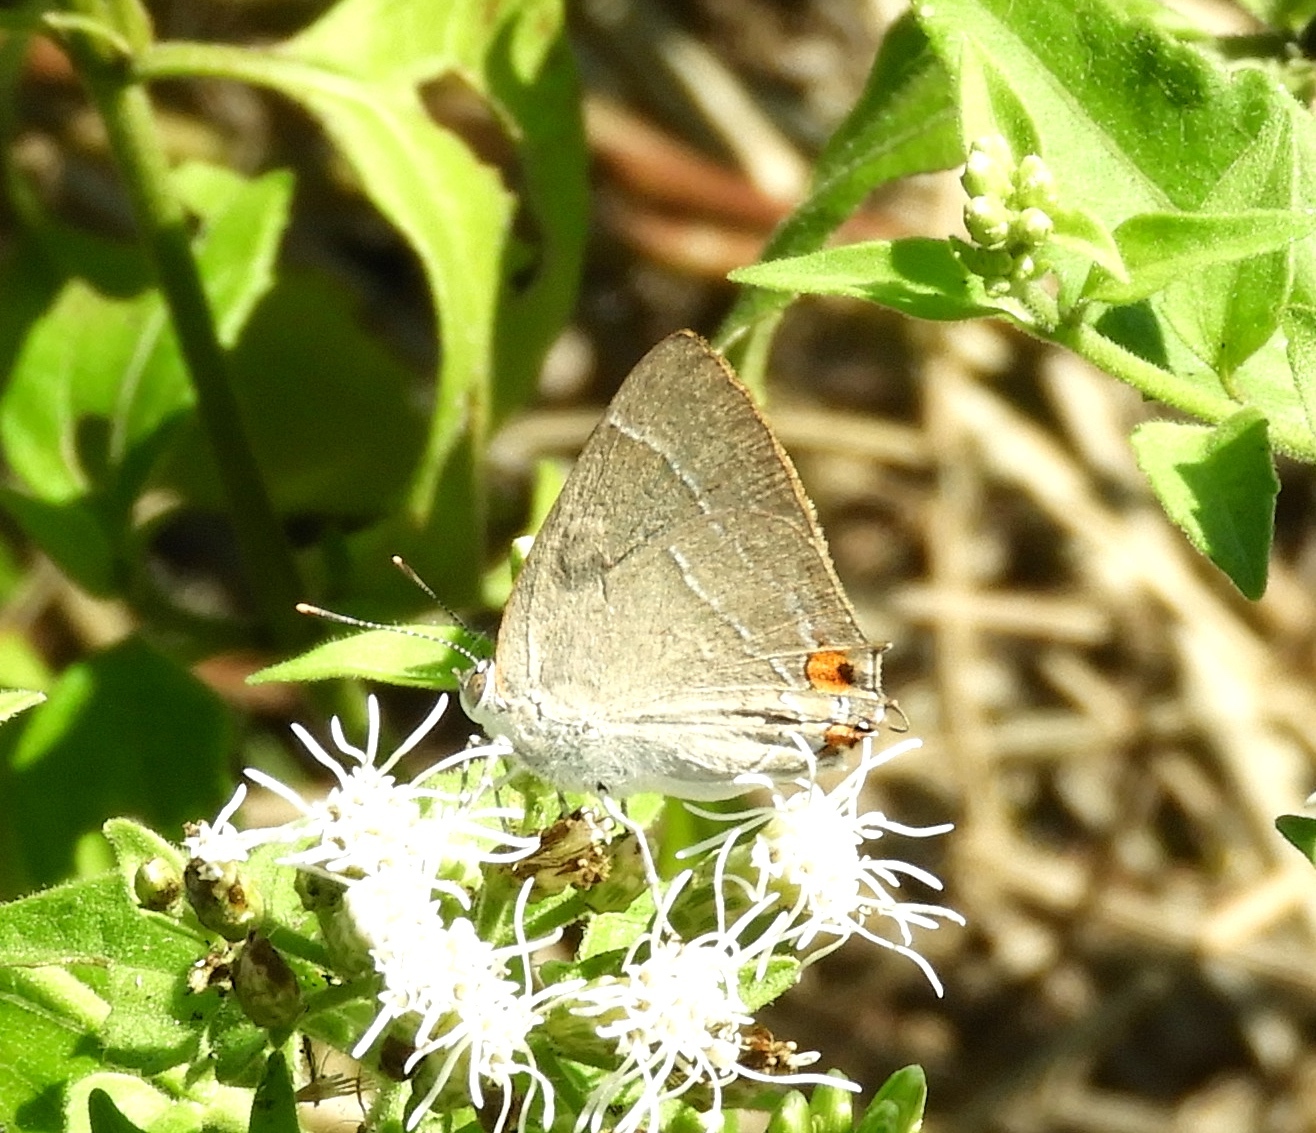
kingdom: Animalia
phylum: Arthropoda
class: Insecta
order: Lepidoptera
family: Lycaenidae
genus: Rekoa
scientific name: Rekoa
